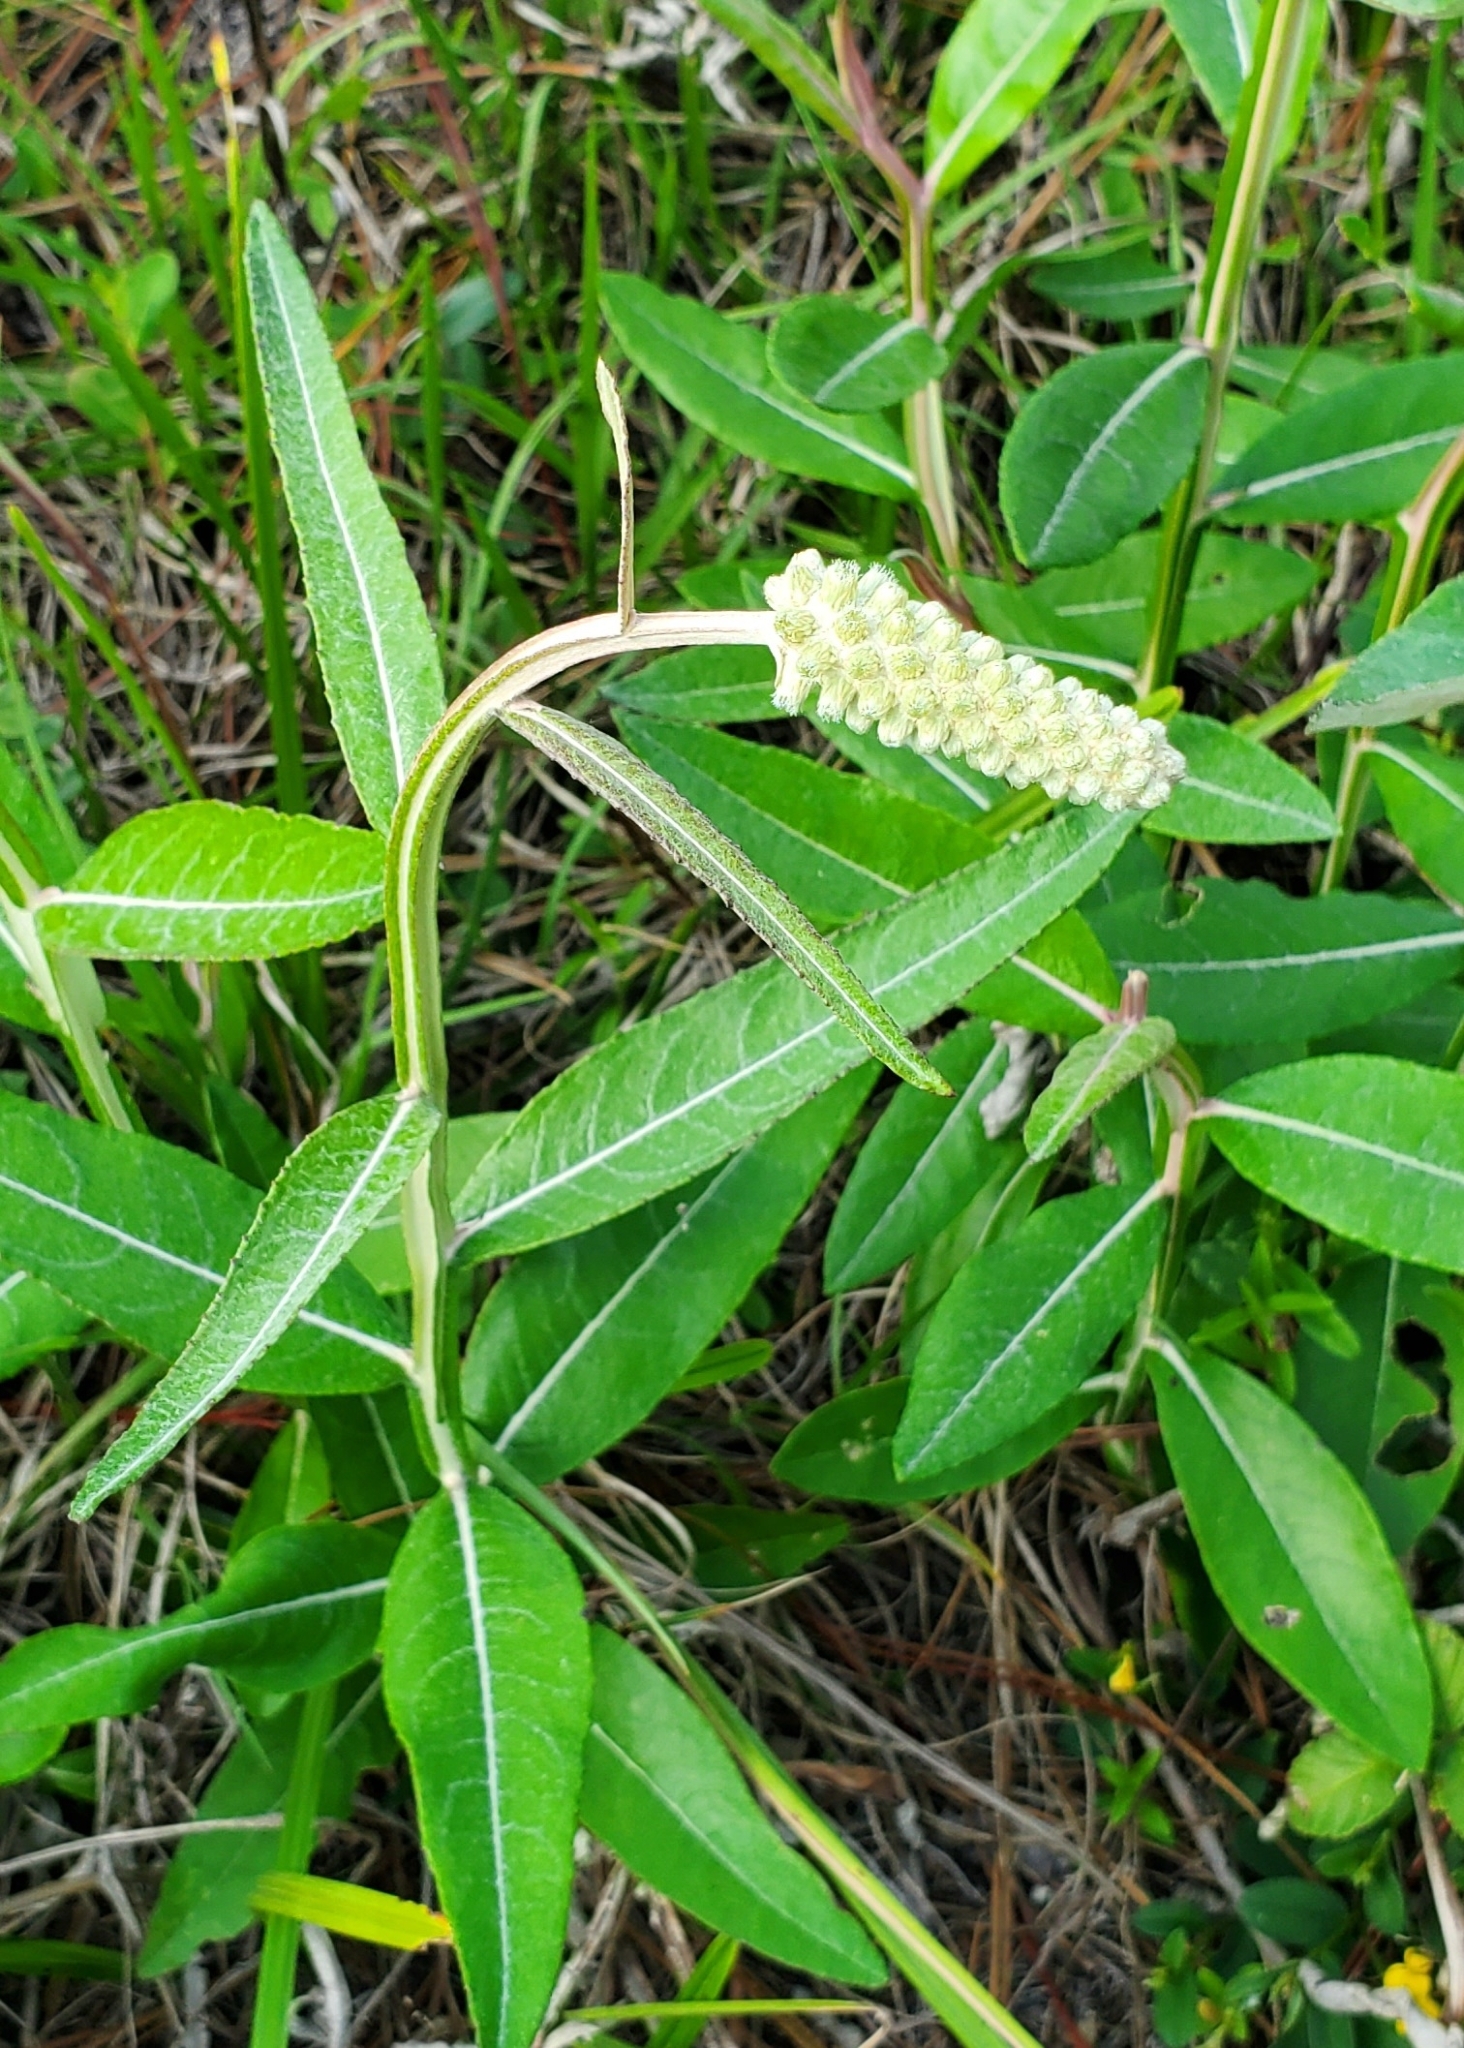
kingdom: Plantae
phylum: Tracheophyta
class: Magnoliopsida
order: Asterales
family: Asteraceae
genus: Pterocaulon
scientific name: Pterocaulon pycnostachyum
